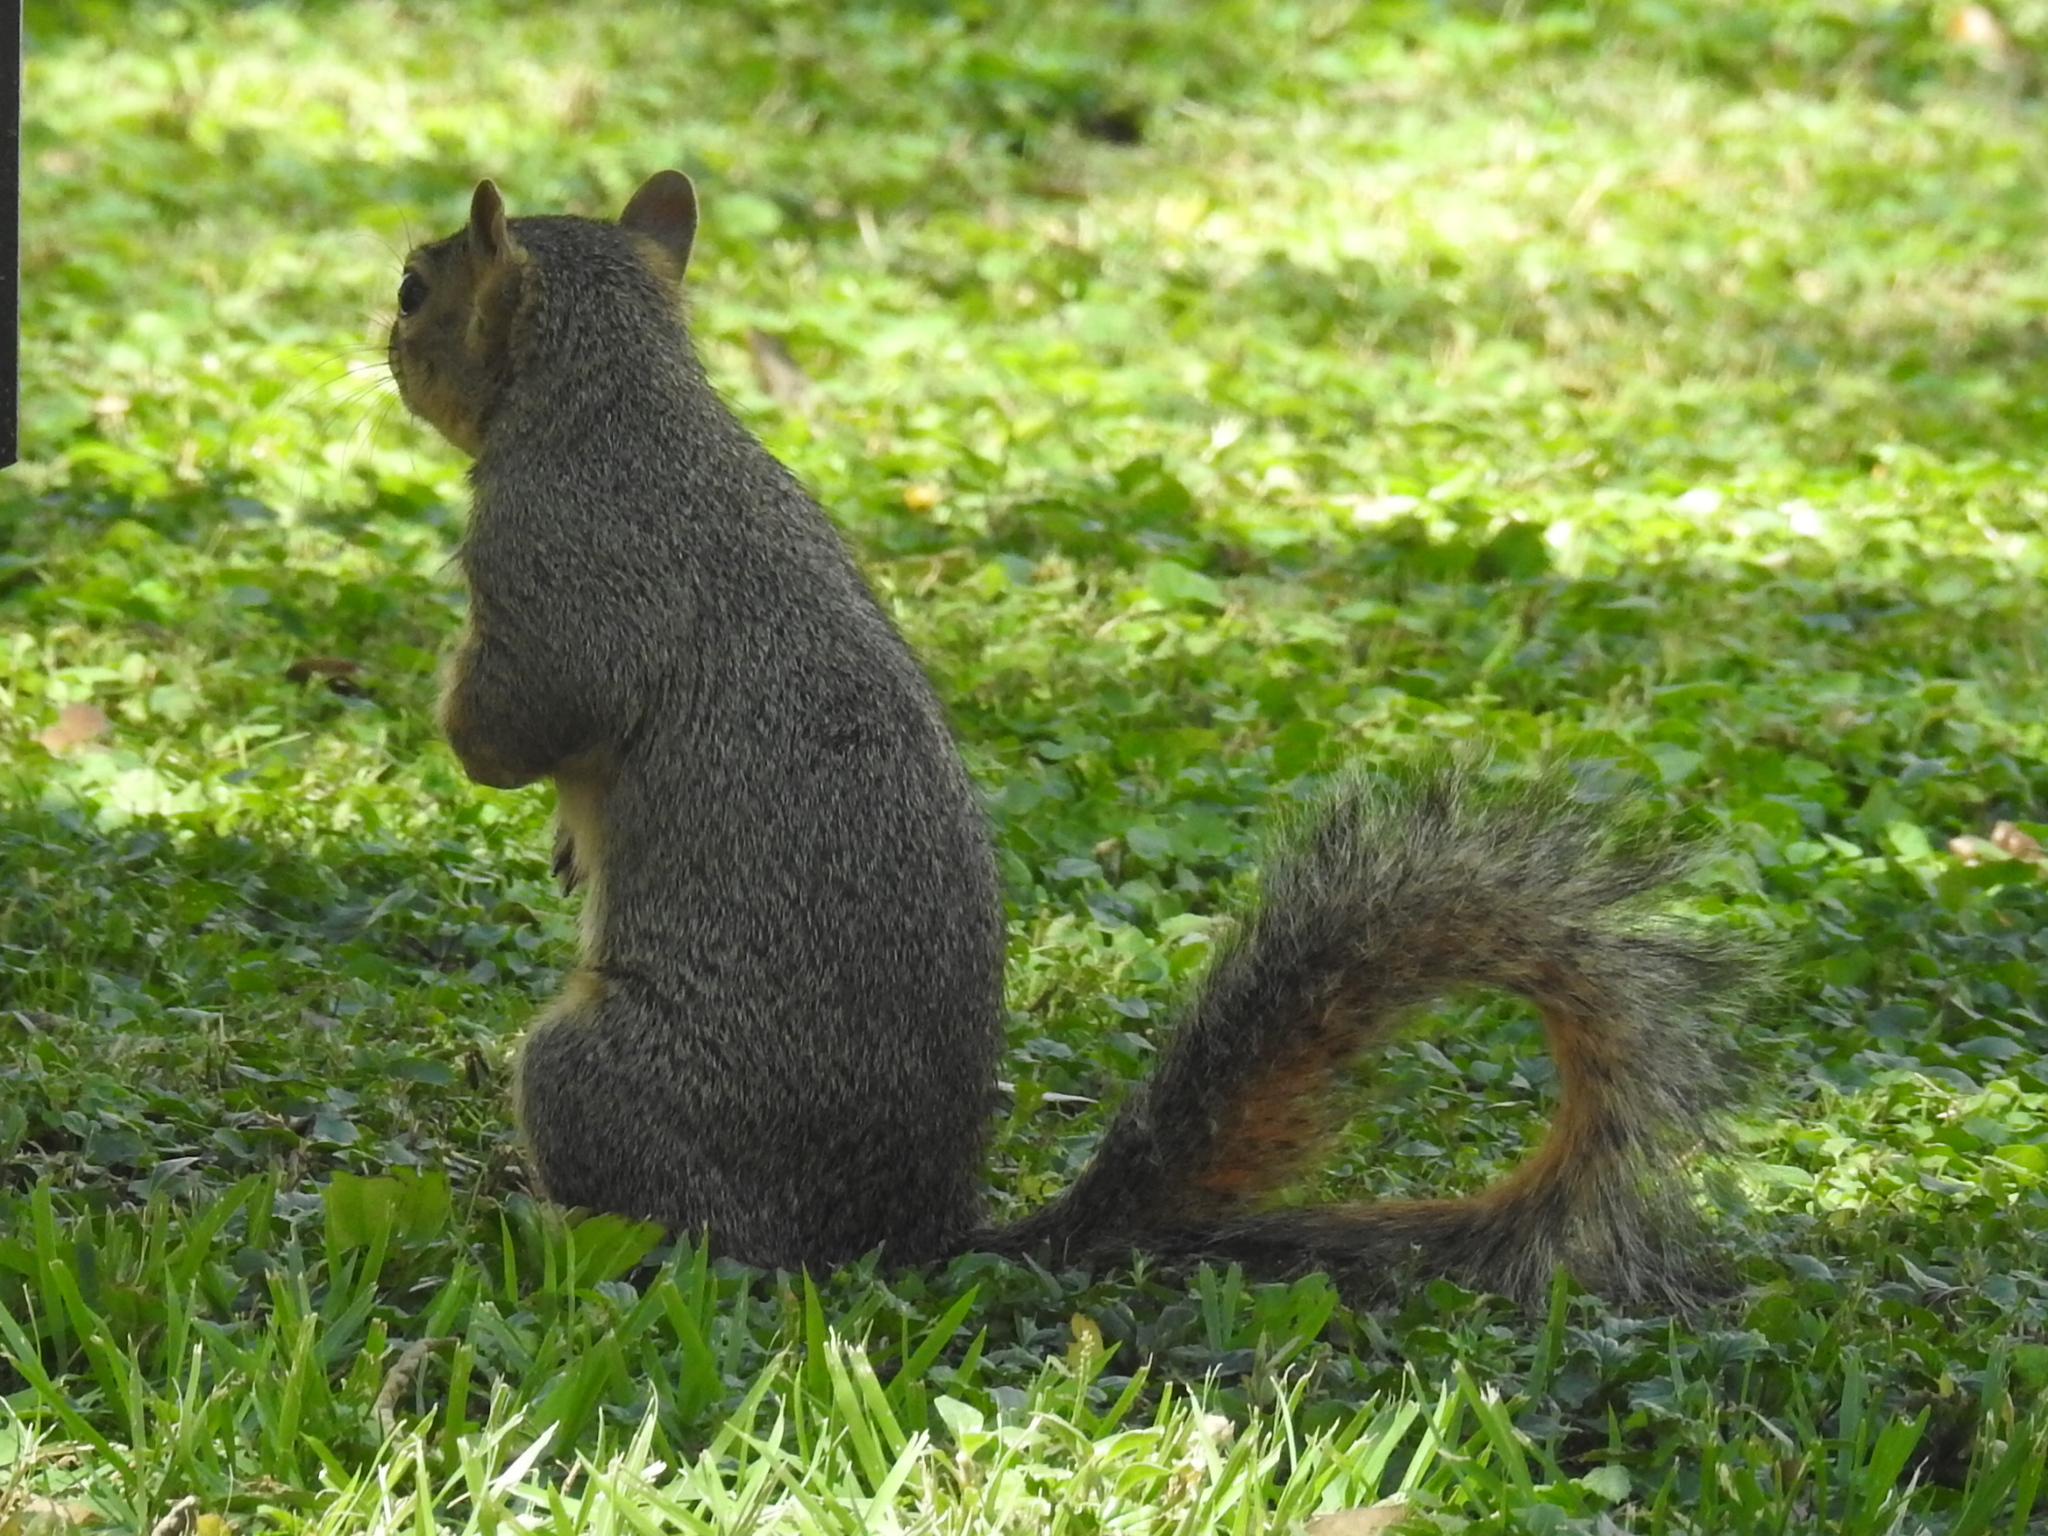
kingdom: Animalia
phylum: Chordata
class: Mammalia
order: Rodentia
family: Sciuridae
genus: Sciurus
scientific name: Sciurus niger
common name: Fox squirrel
